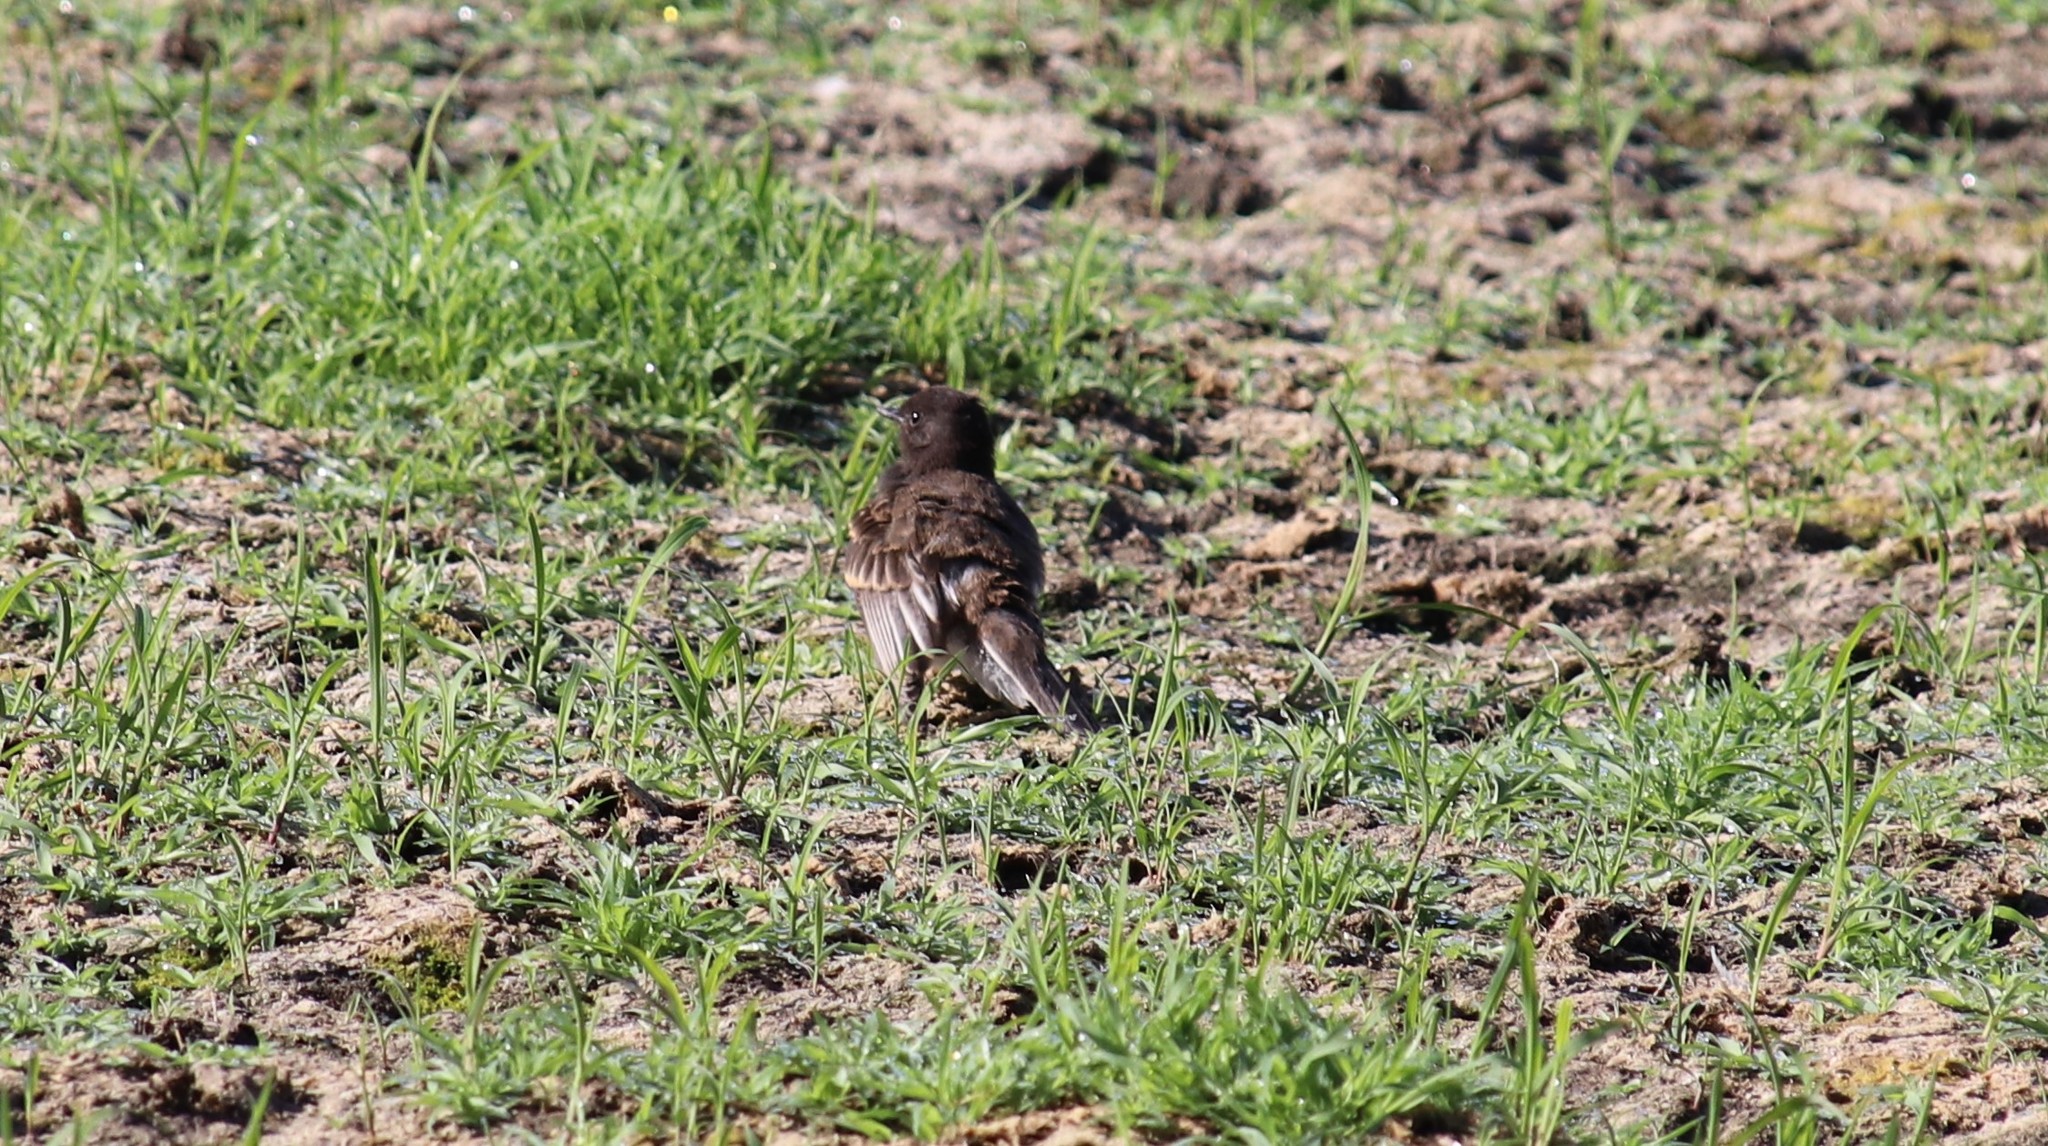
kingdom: Animalia
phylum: Chordata
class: Aves
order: Passeriformes
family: Tyrannidae
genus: Sayornis
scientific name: Sayornis nigricans
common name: Black phoebe
